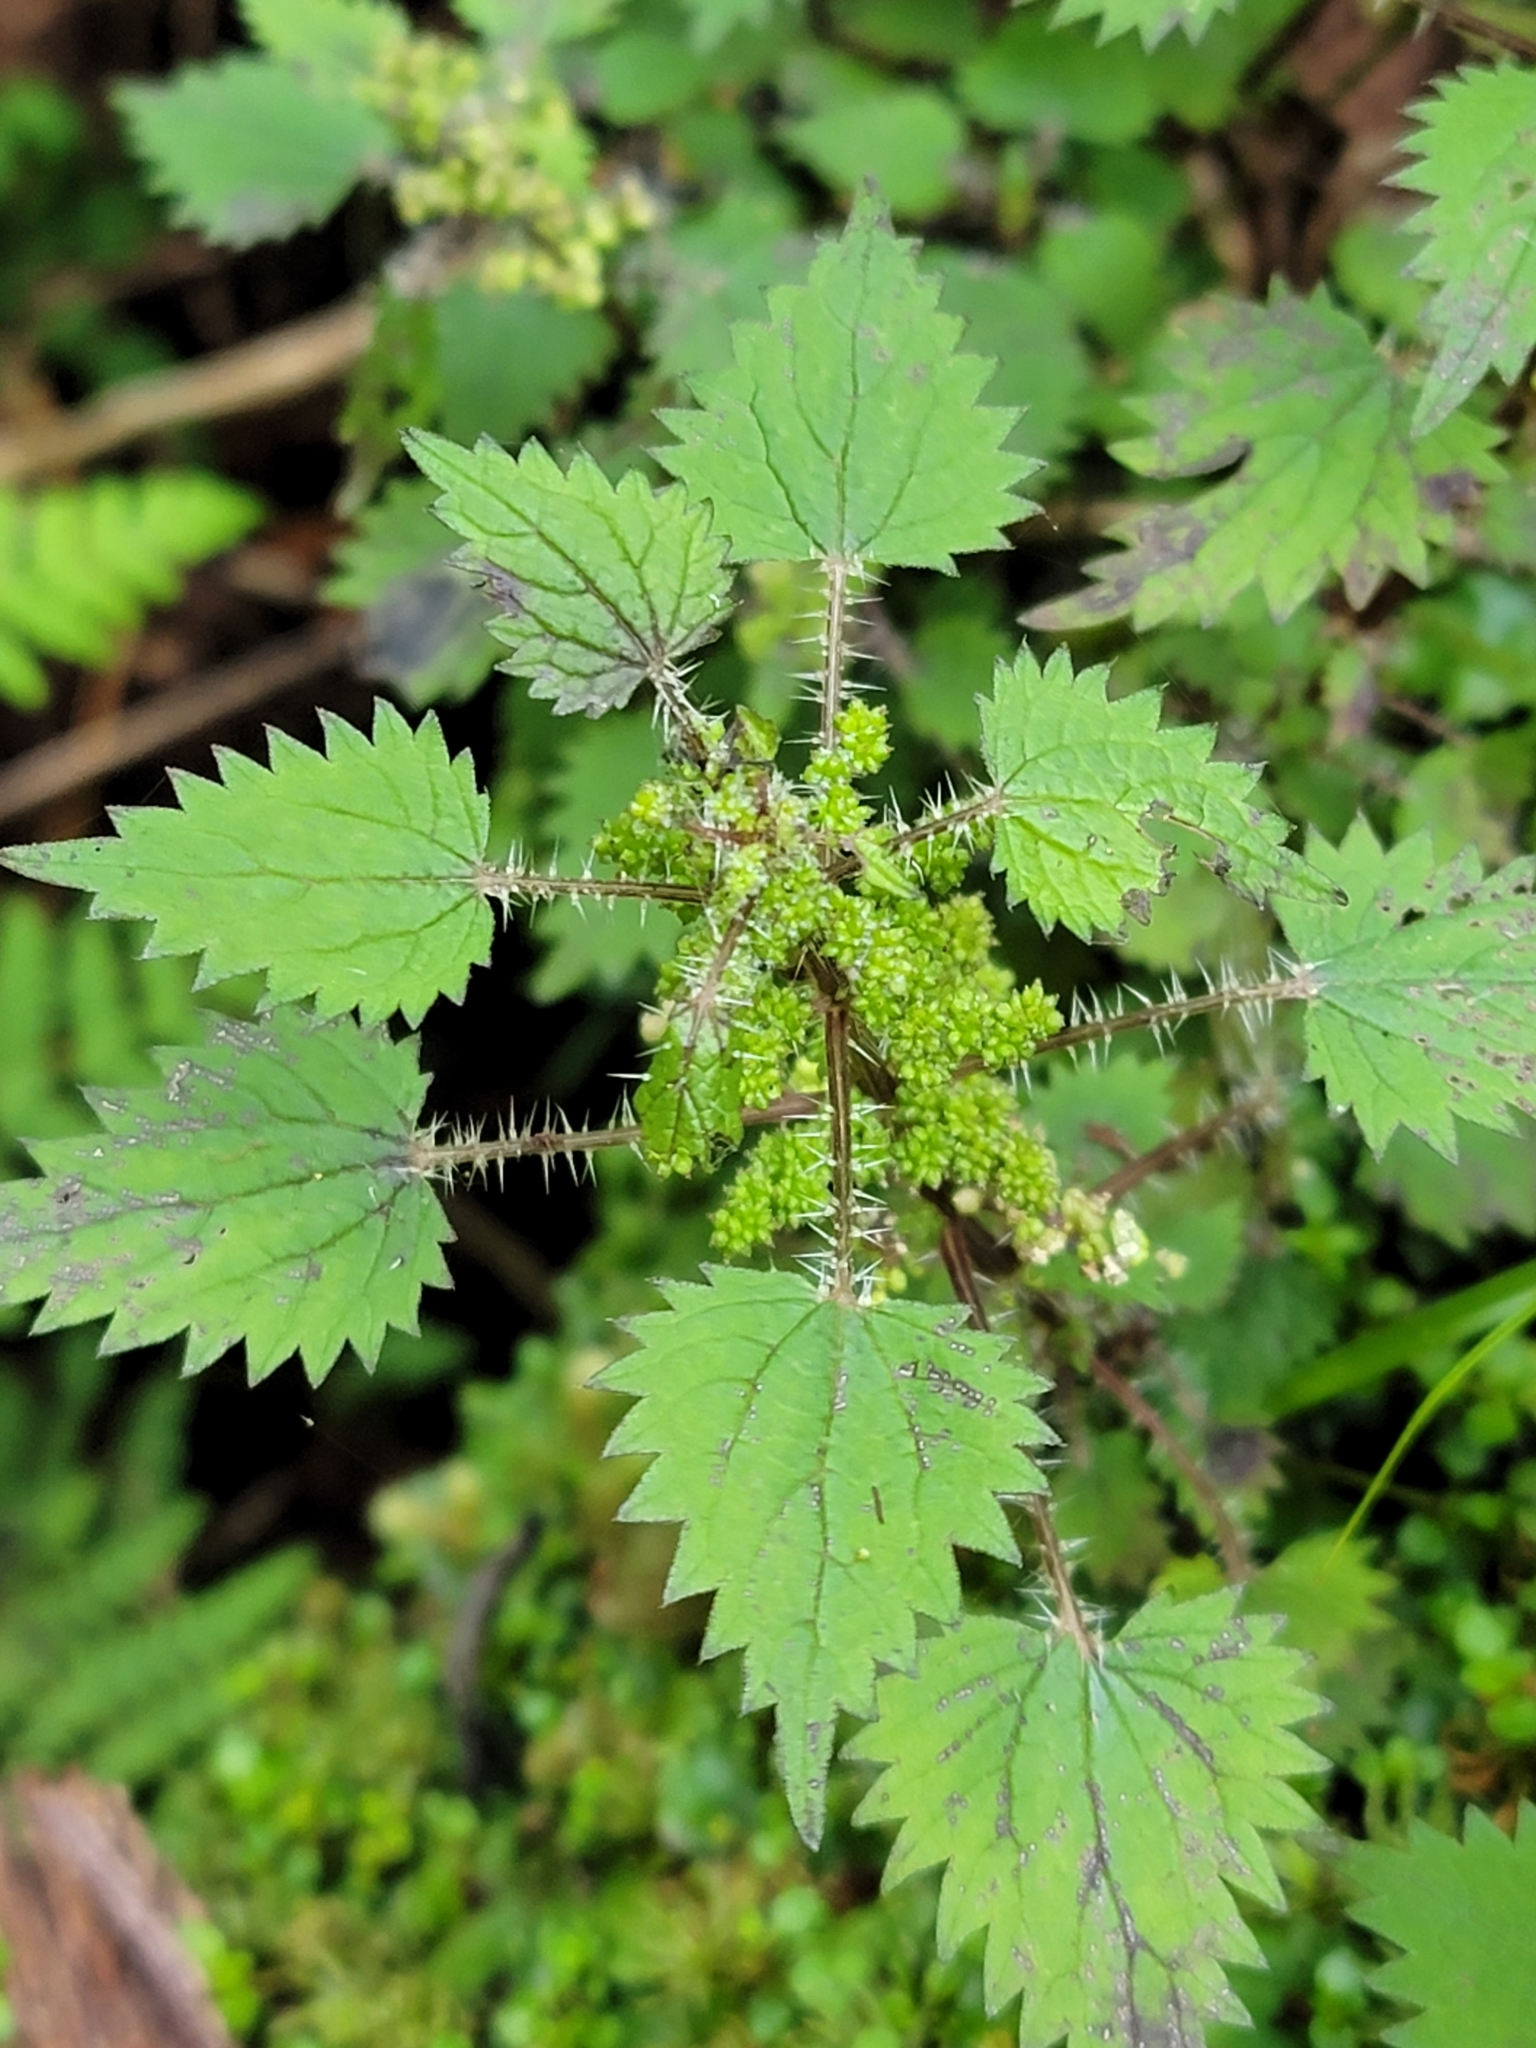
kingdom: Plantae
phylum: Tracheophyta
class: Magnoliopsida
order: Rosales
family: Urticaceae
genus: Urtica
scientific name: Urtica sykesii
